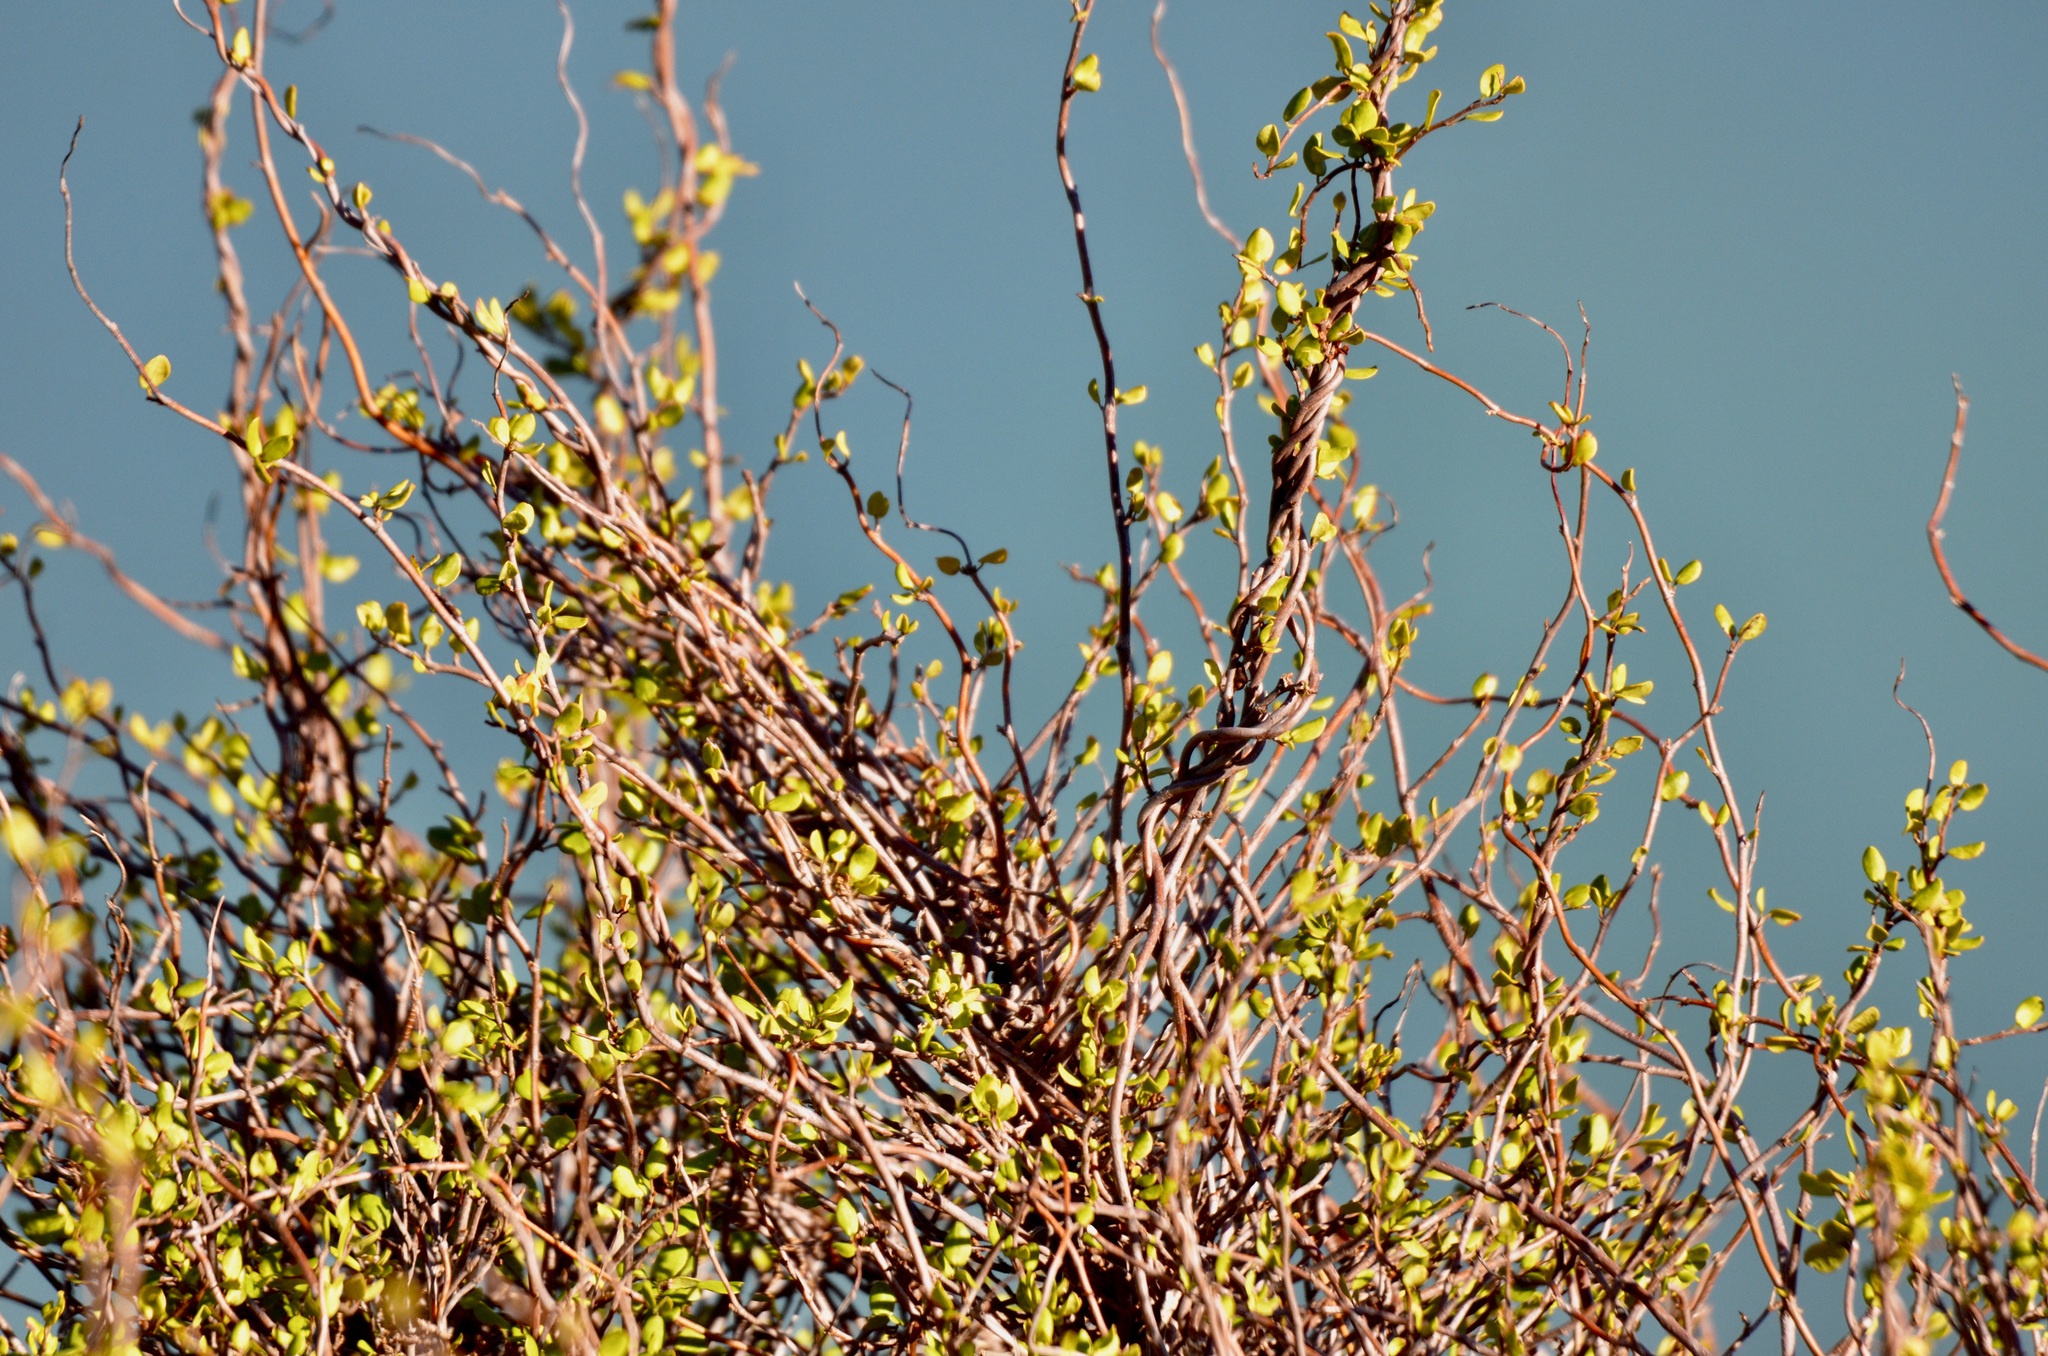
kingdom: Plantae
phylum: Tracheophyta
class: Magnoliopsida
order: Caryophyllales
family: Polygonaceae
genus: Muehlenbeckia
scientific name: Muehlenbeckia complexa
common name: Wireplant
